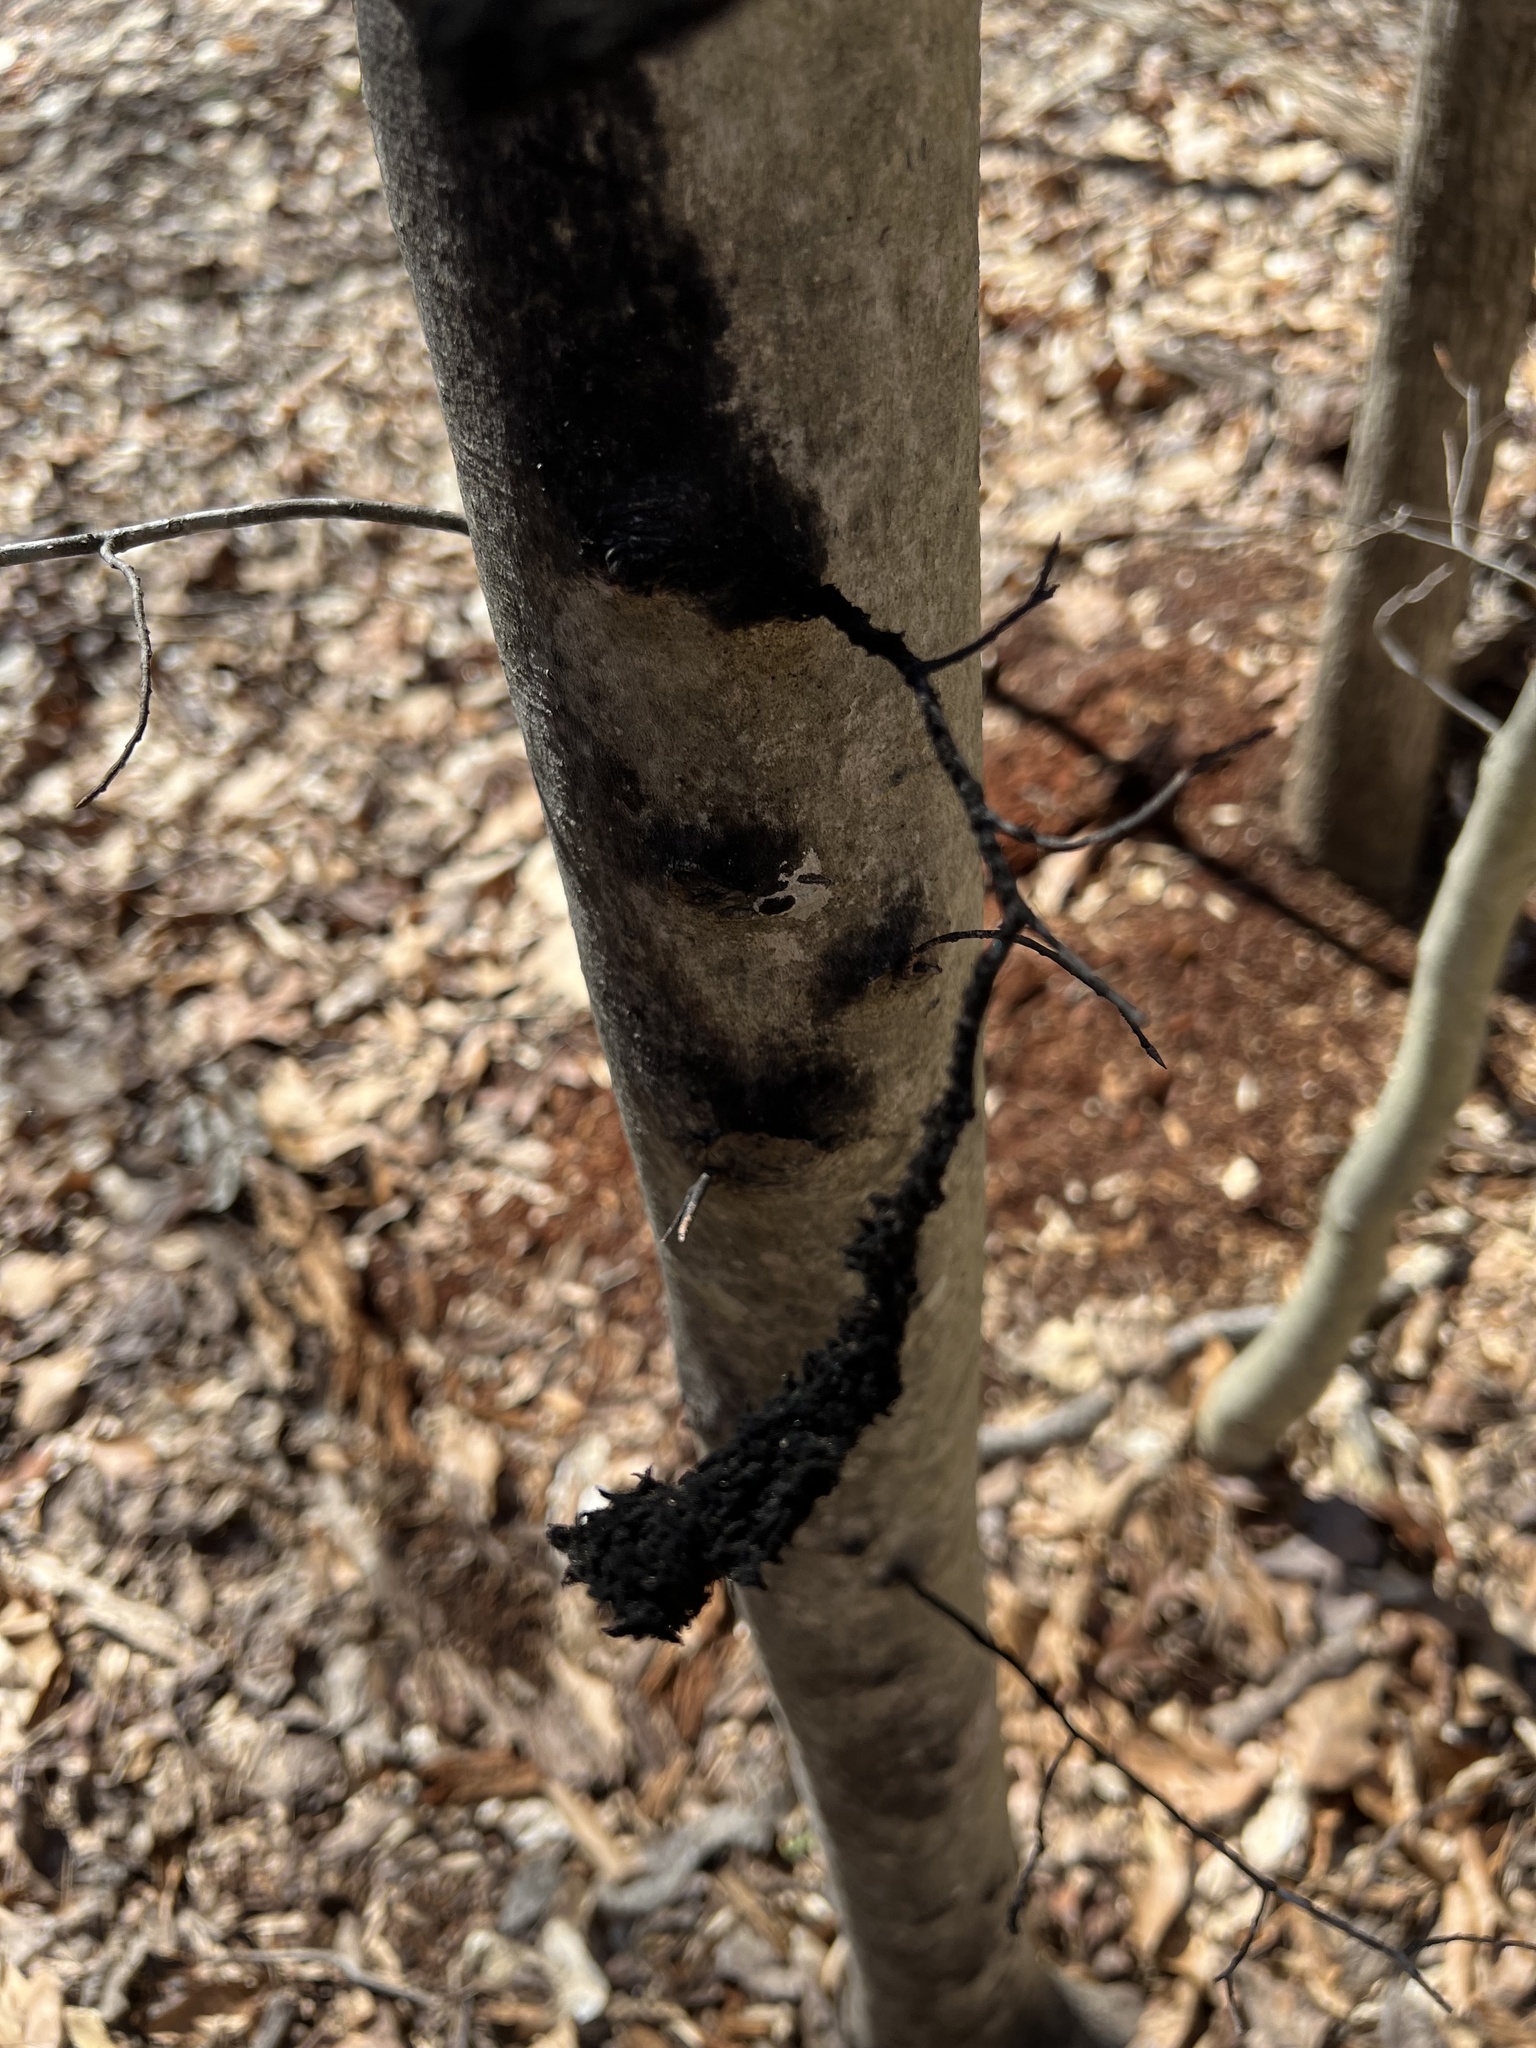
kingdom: Fungi
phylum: Ascomycota
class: Dothideomycetes
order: Capnodiales
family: Capnodiaceae
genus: Scorias
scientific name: Scorias spongiosa
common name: Black sooty mold
